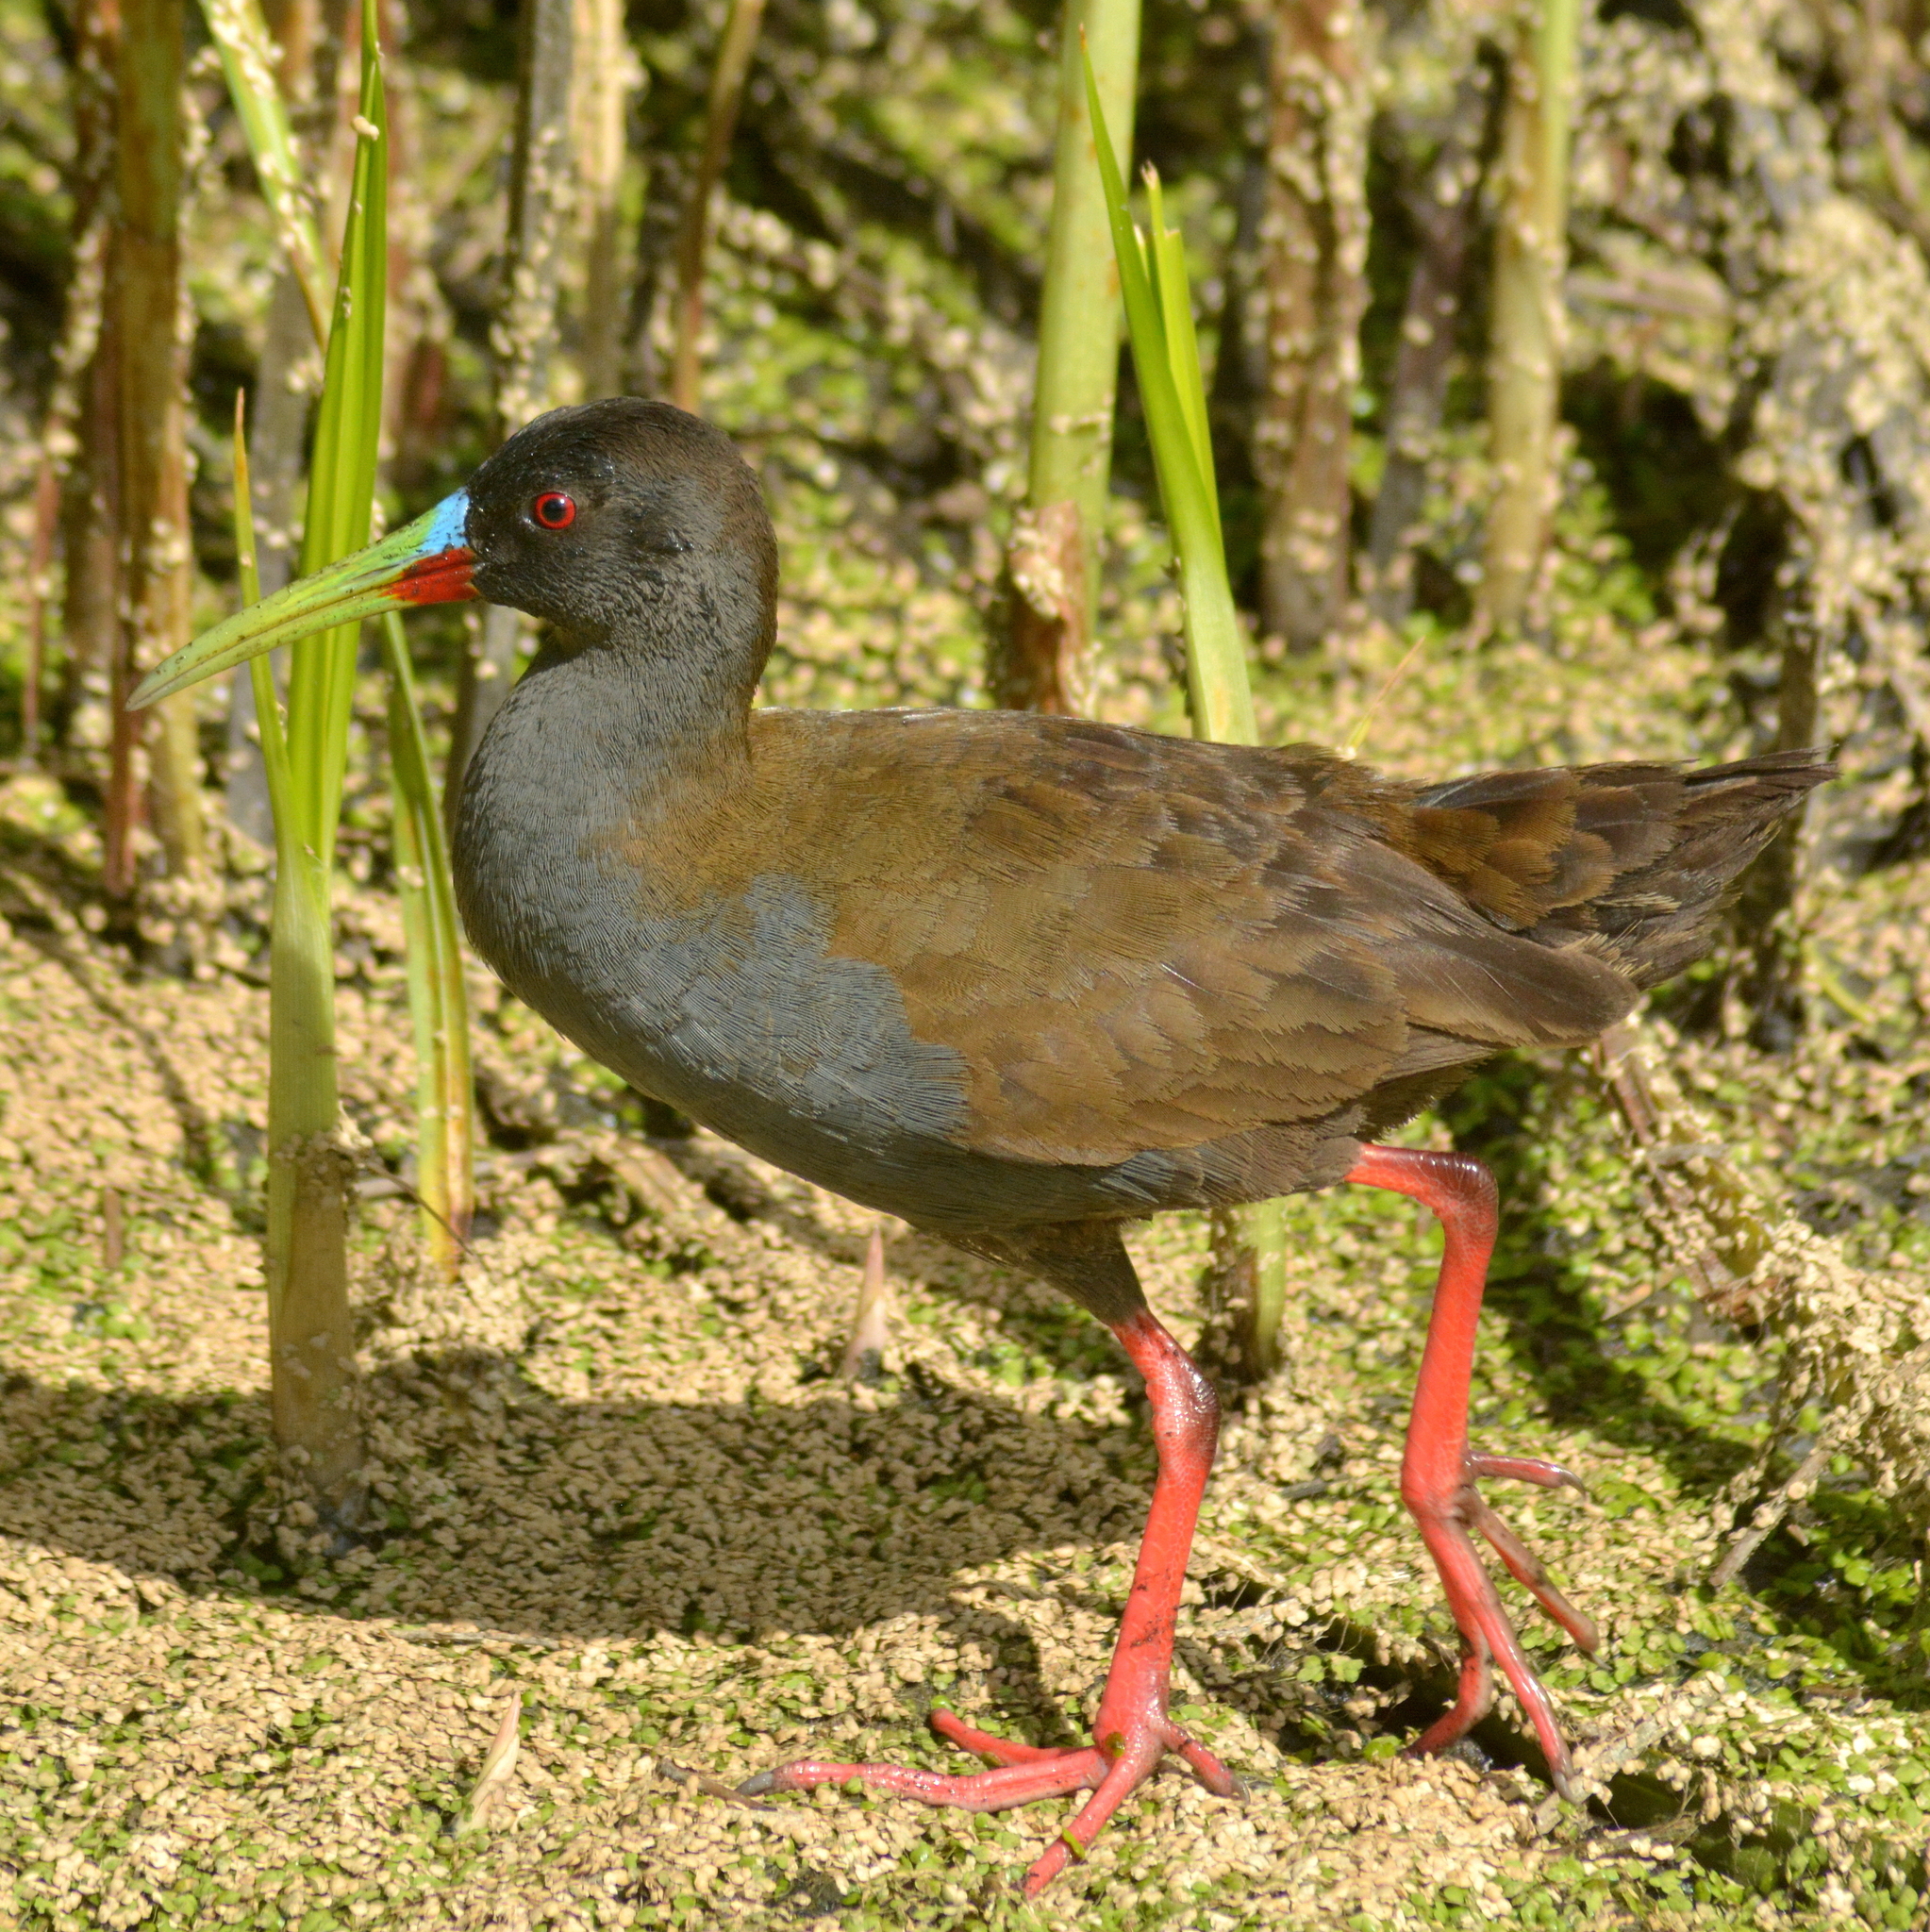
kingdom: Animalia
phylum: Chordata
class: Aves
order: Gruiformes
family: Rallidae
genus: Pardirallus
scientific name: Pardirallus sanguinolentus
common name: Plumbeous rail
